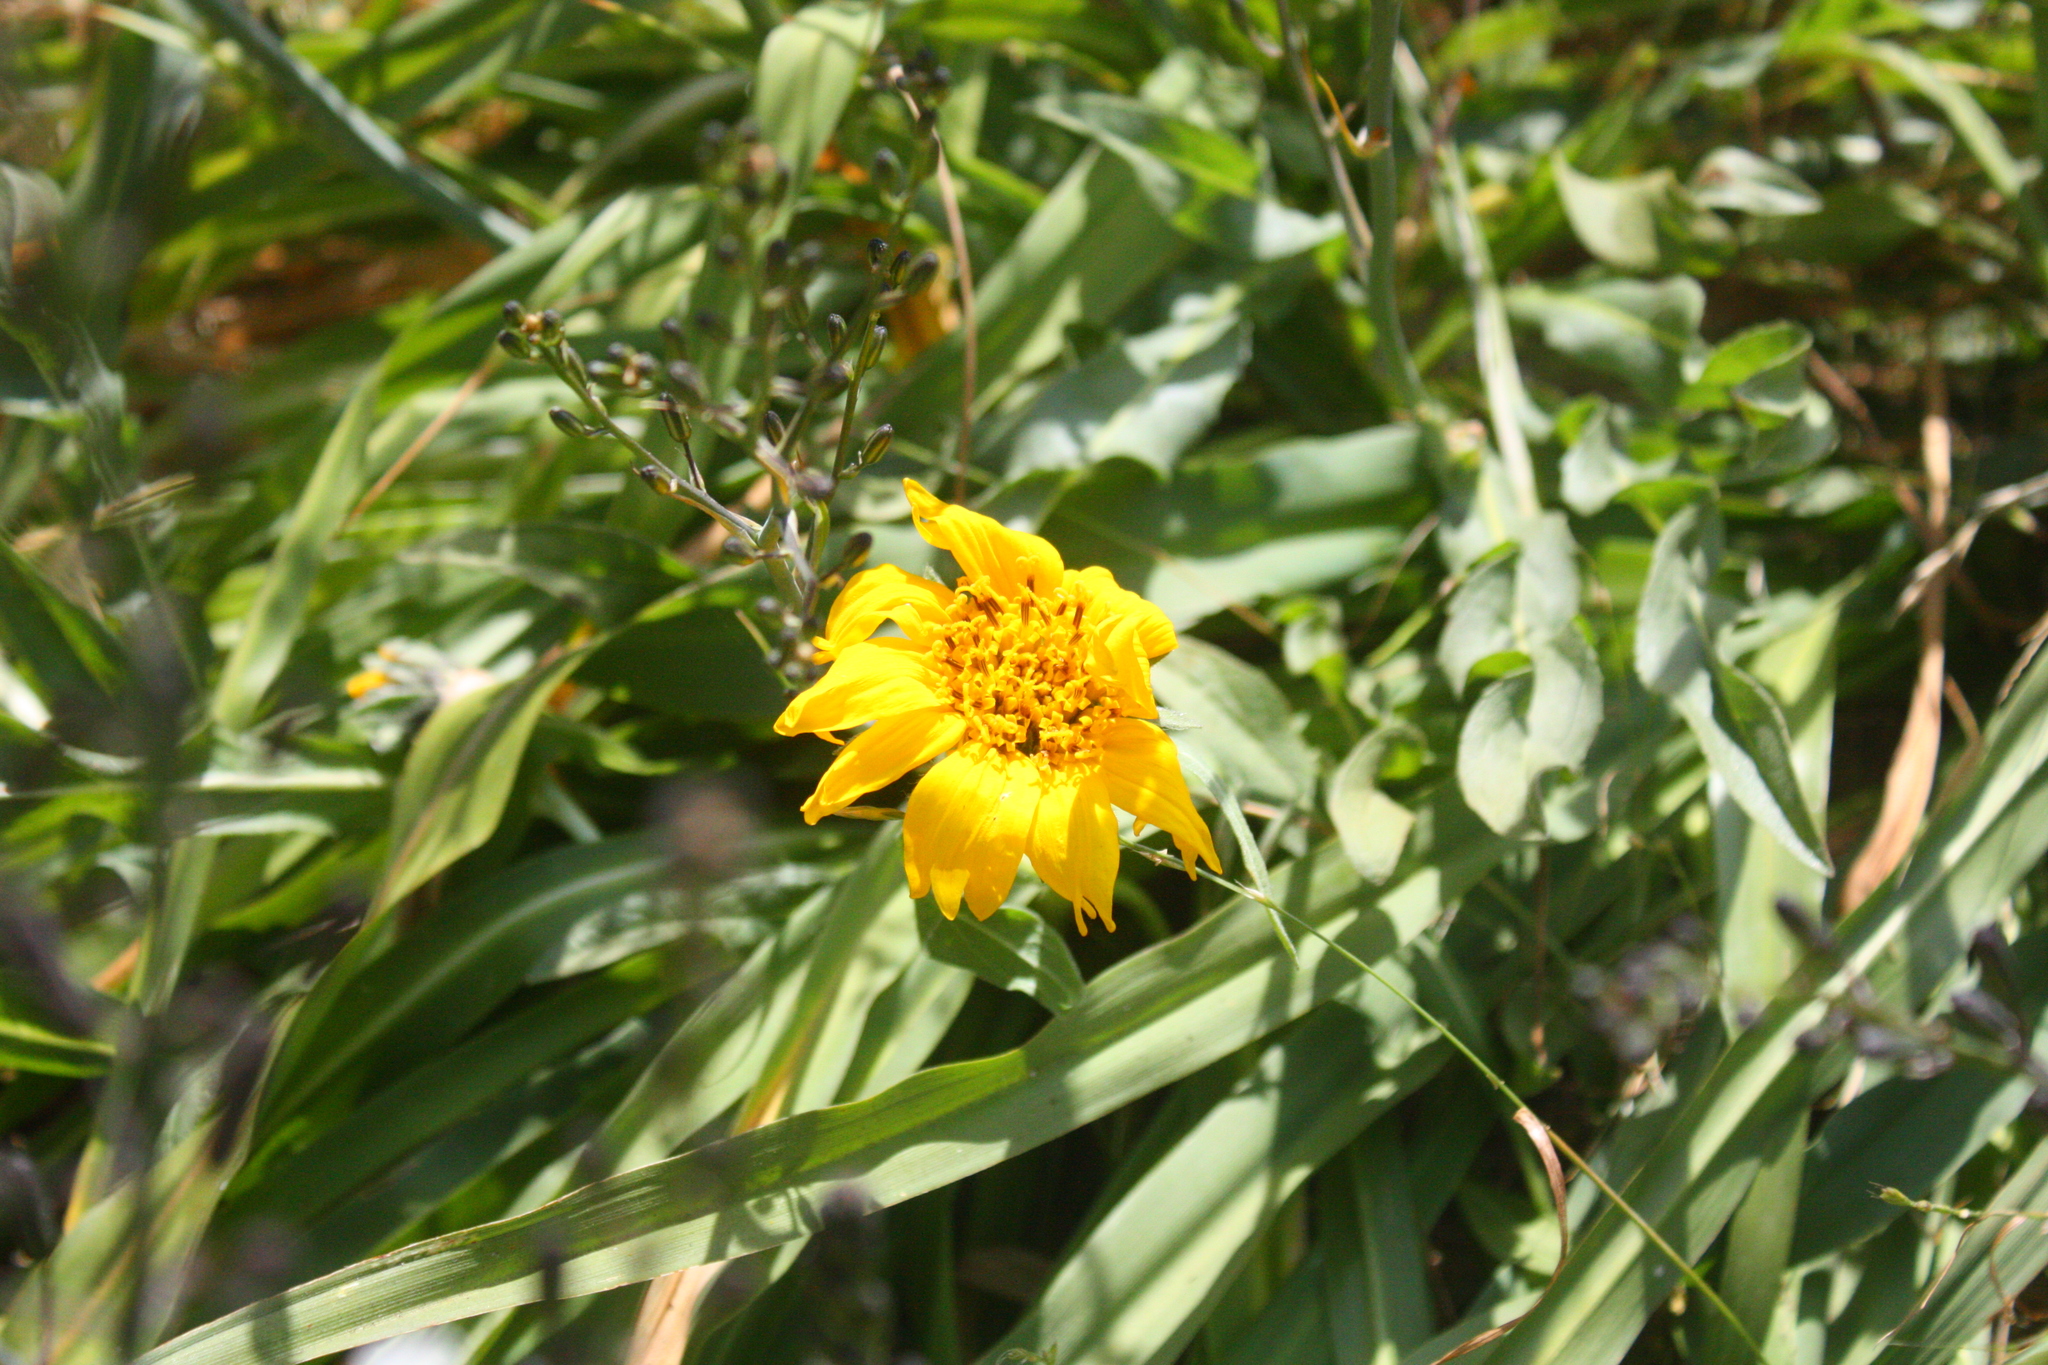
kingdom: Plantae
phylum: Tracheophyta
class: Magnoliopsida
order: Asterales
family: Asteraceae
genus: Wyethia
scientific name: Wyethia angustifolia
